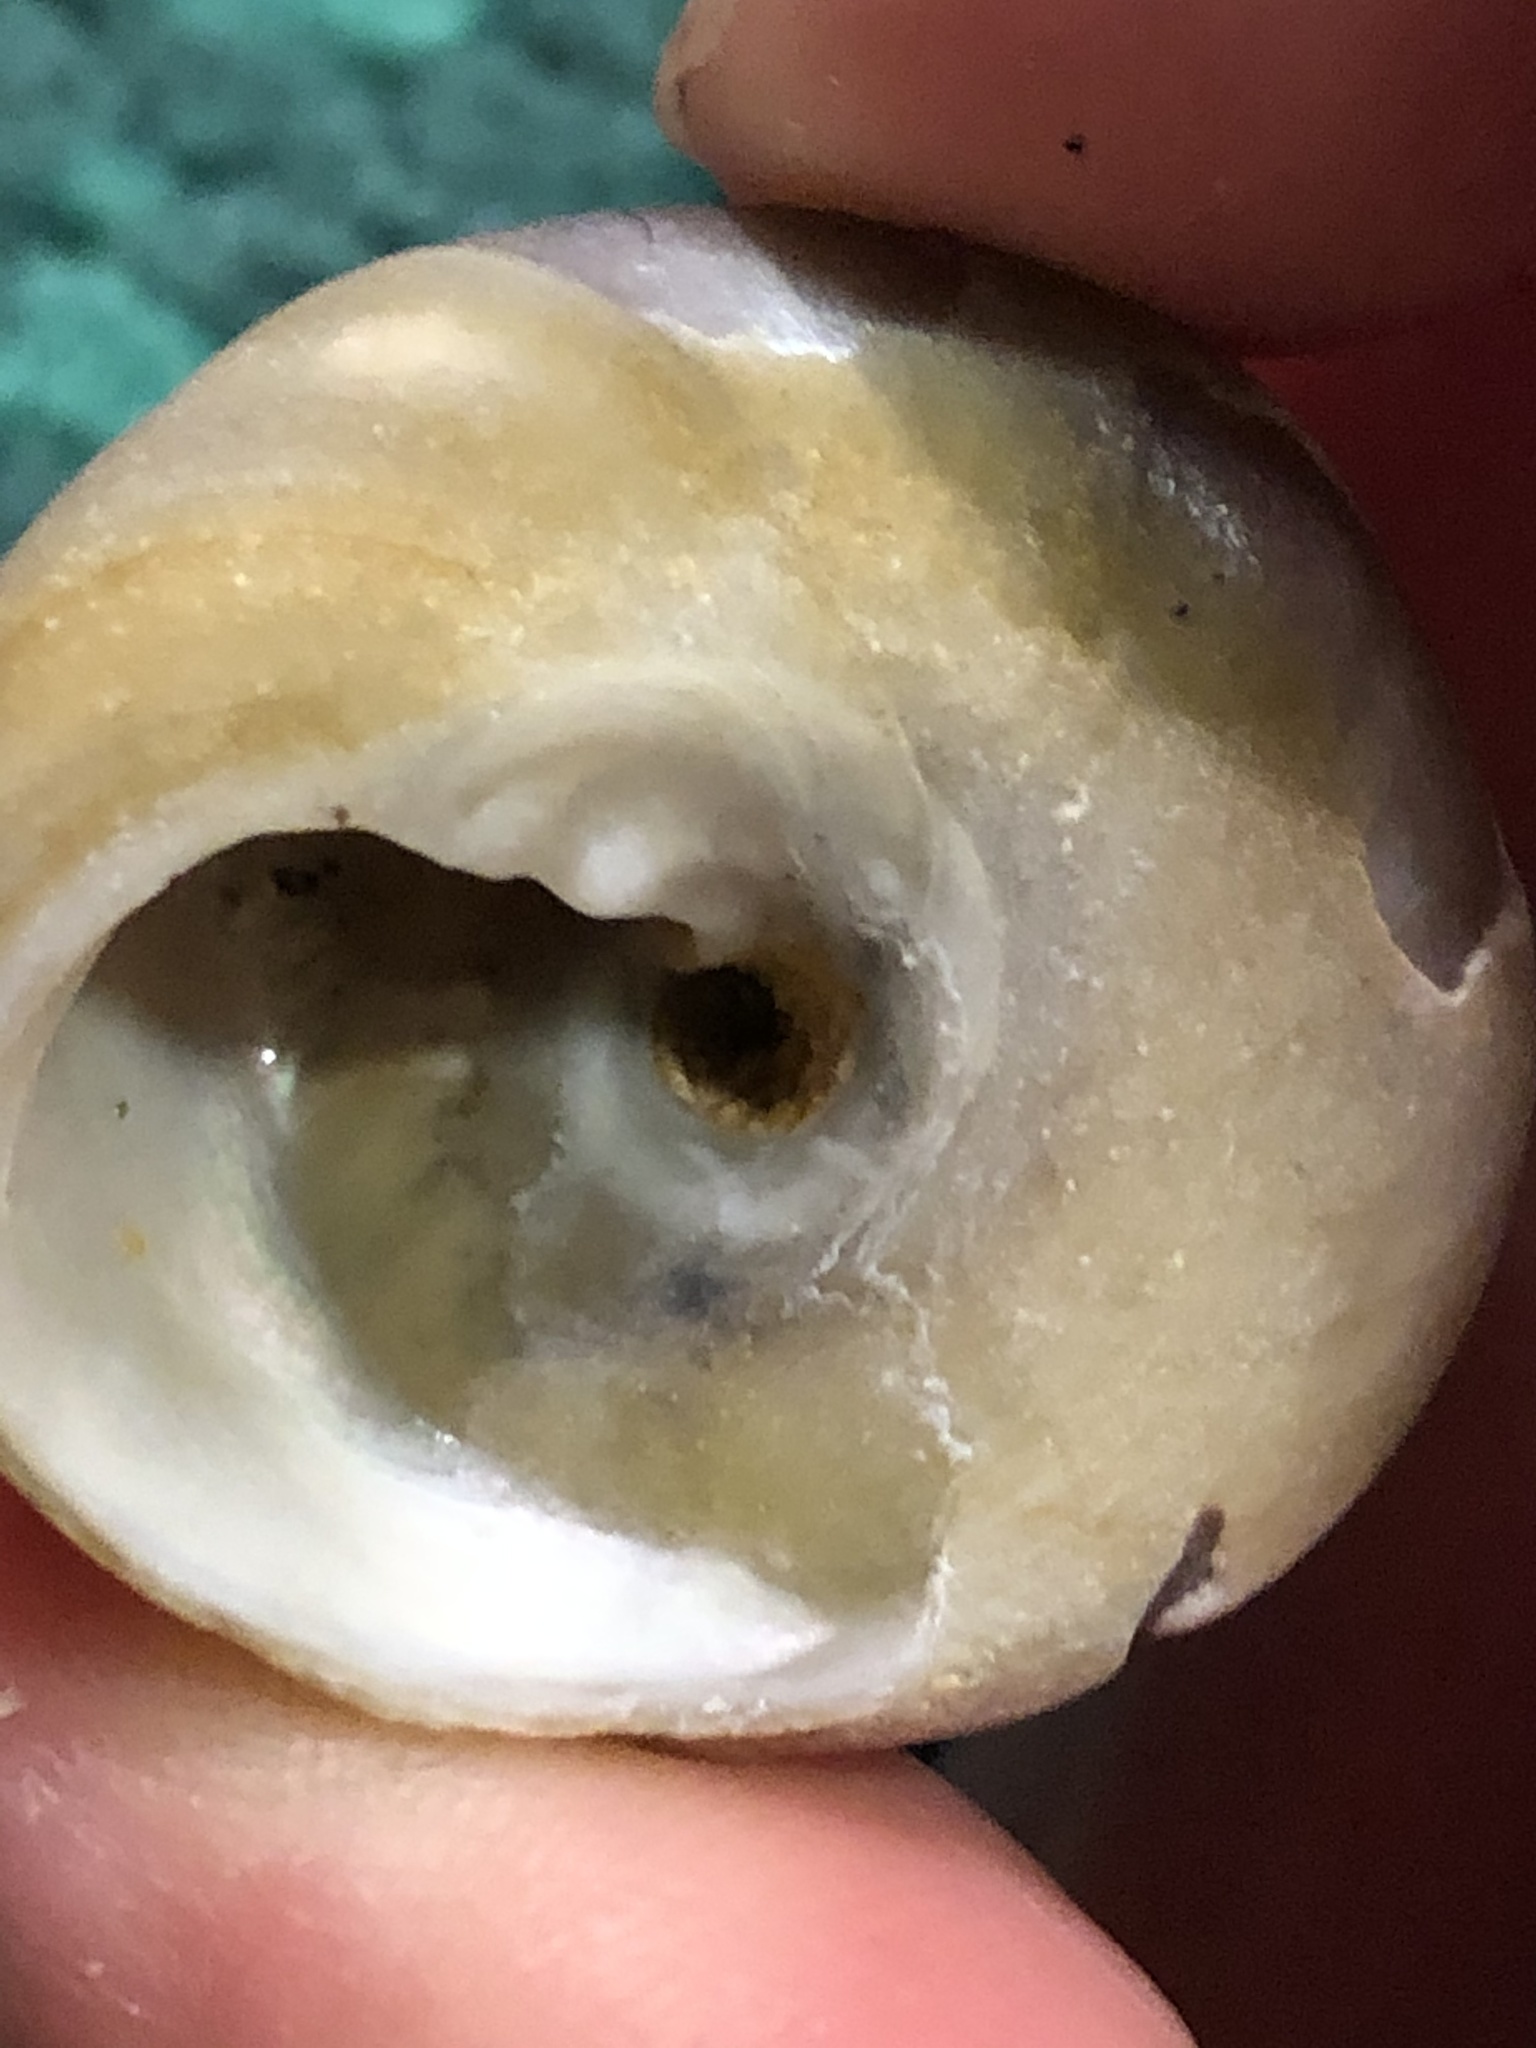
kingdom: Animalia
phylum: Mollusca
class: Gastropoda
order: Trochida
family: Tegulidae
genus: Tegula
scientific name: Tegula montereyi
